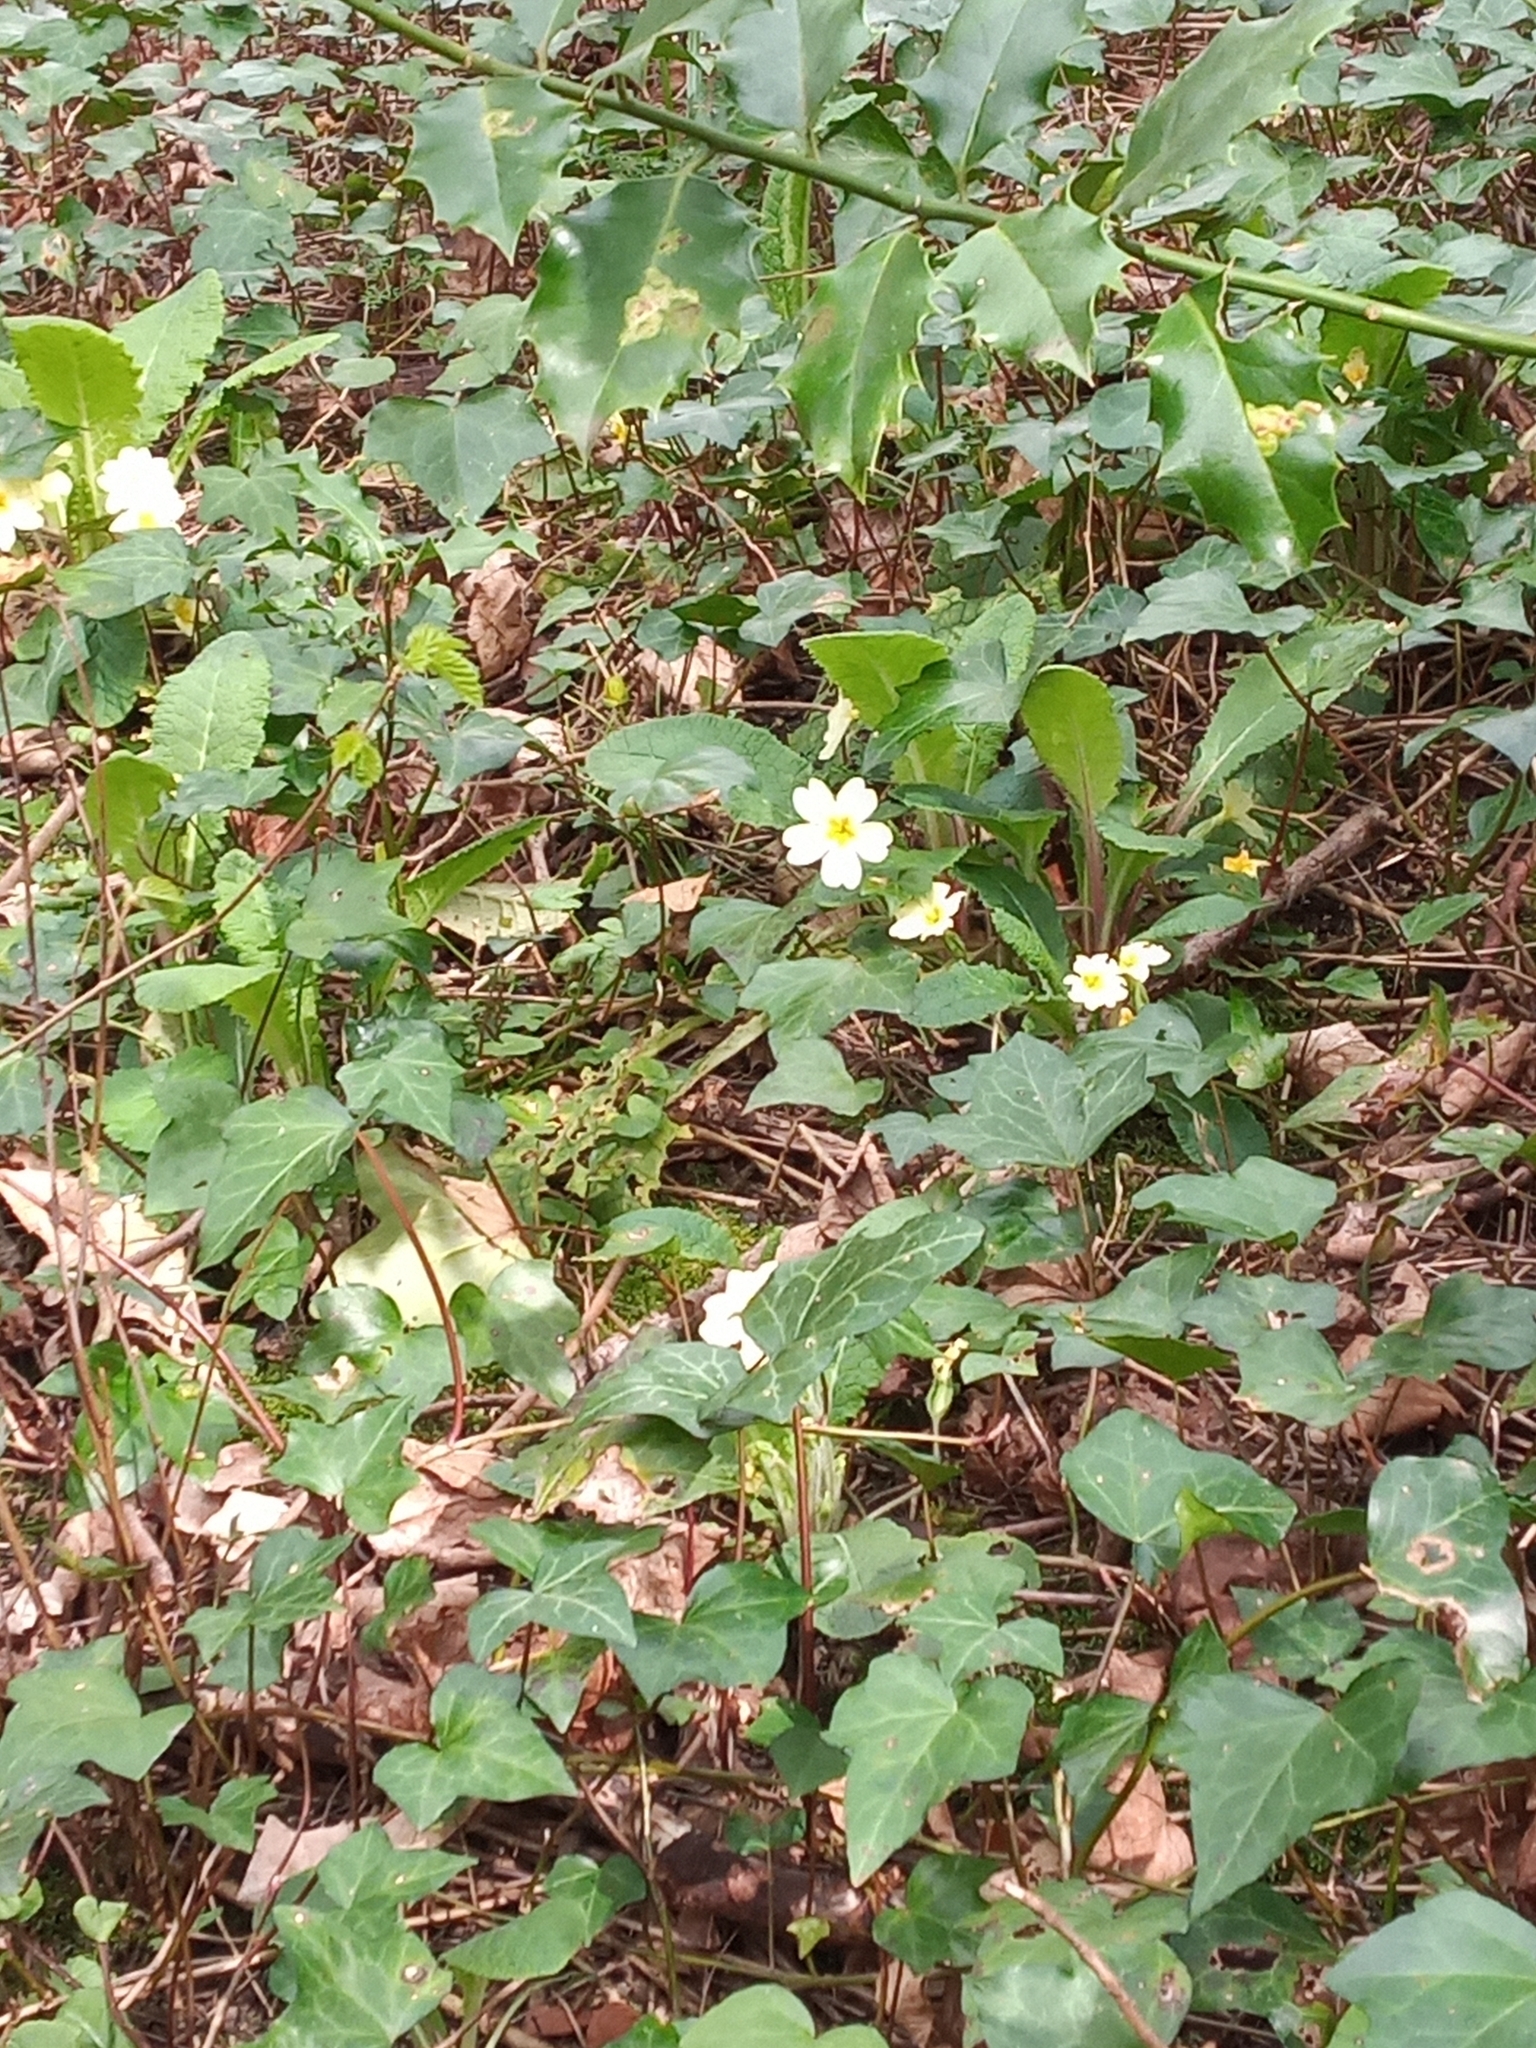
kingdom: Plantae
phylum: Tracheophyta
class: Magnoliopsida
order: Ericales
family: Primulaceae
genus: Primula
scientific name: Primula vulgaris
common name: Primrose
